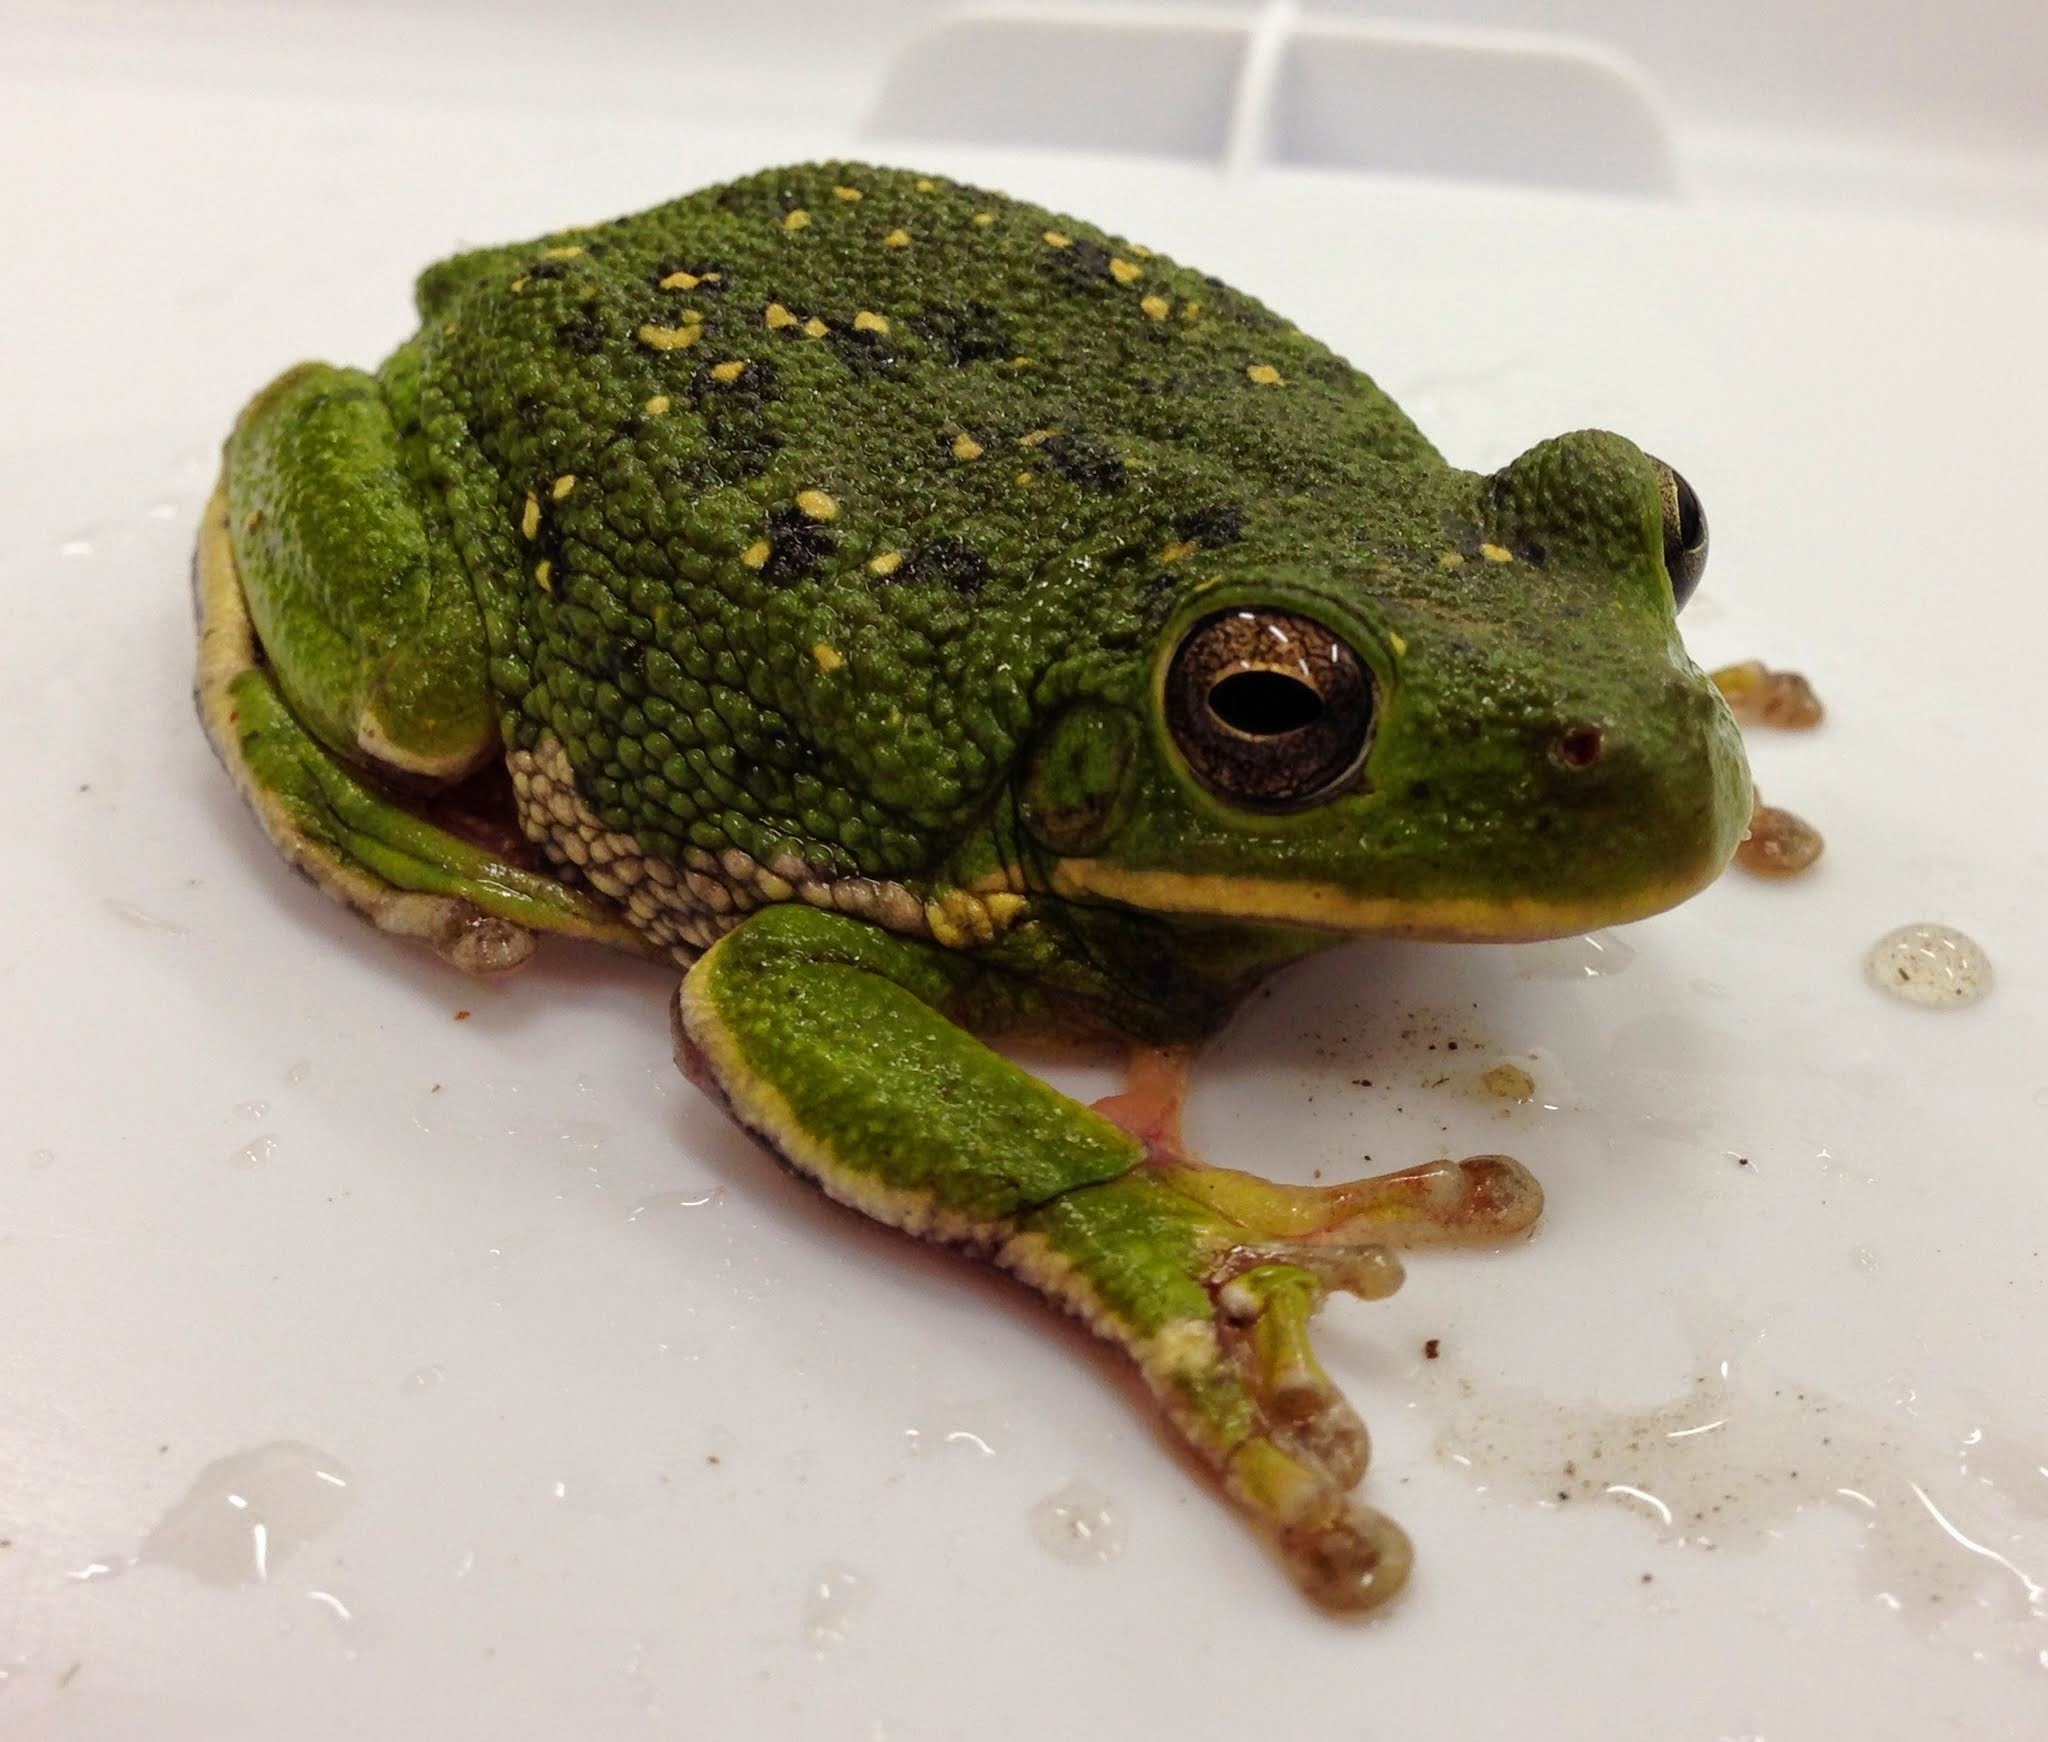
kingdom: Animalia
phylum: Chordata
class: Amphibia
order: Anura
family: Hylidae
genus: Dryophytes
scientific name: Dryophytes gratiosus
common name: Barking treefrog
